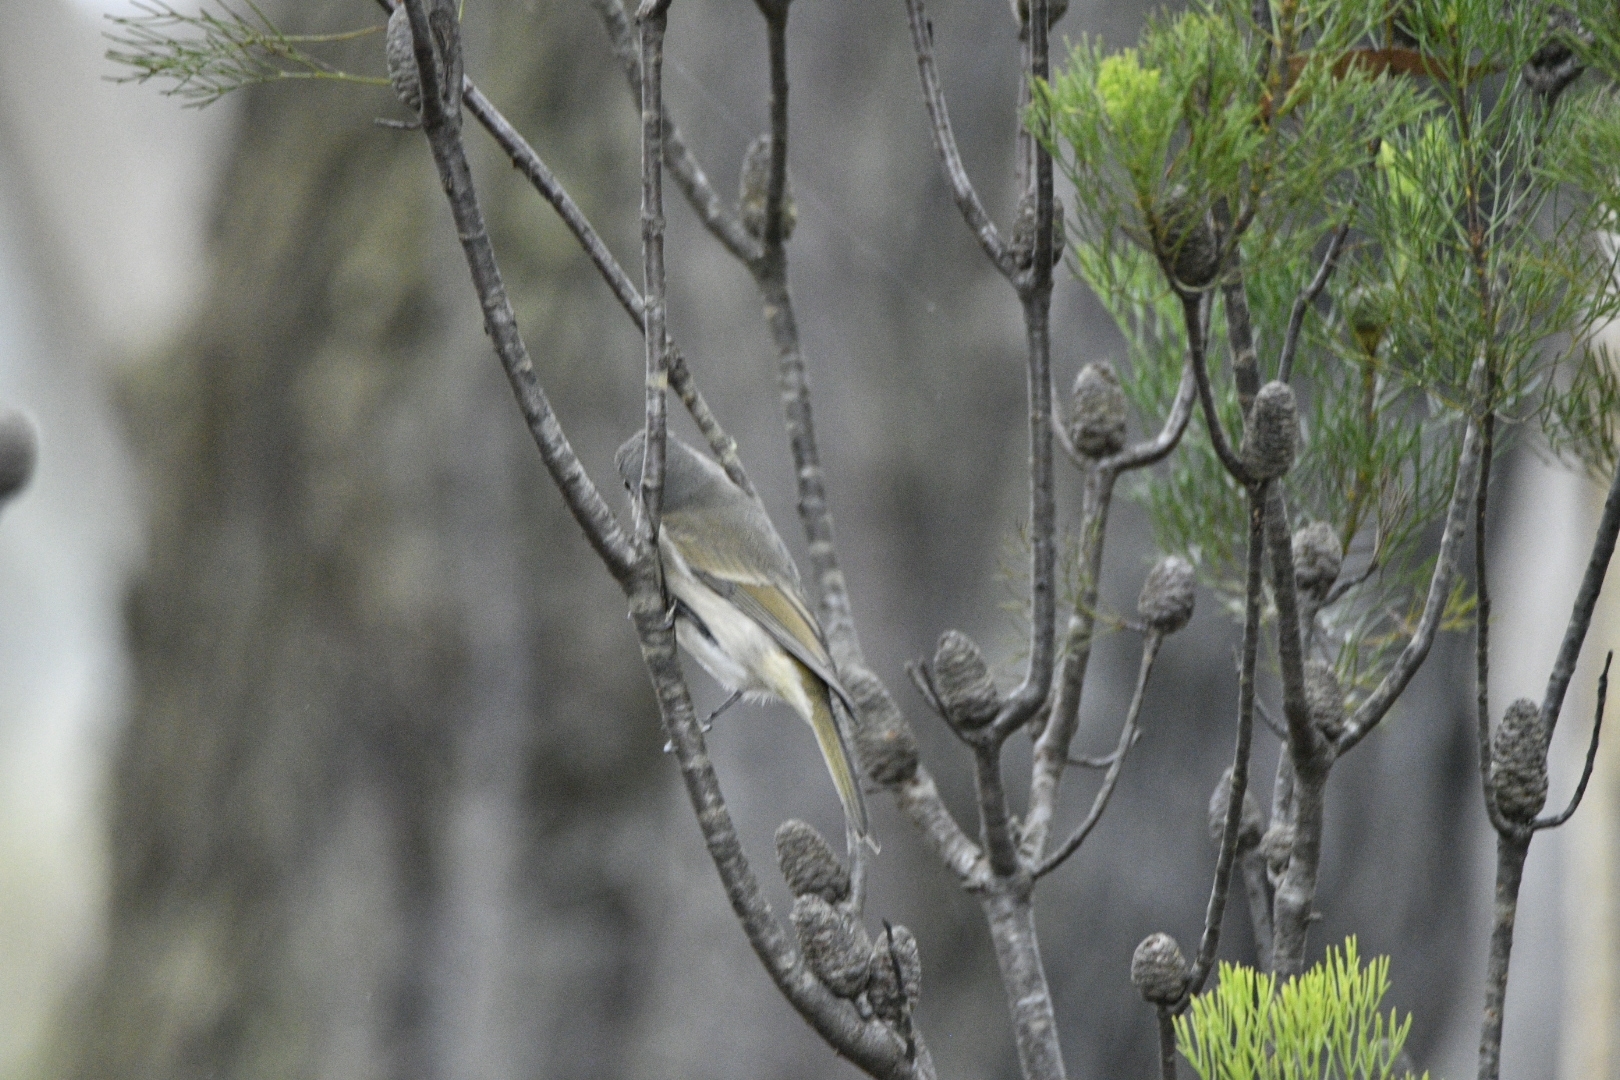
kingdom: Animalia
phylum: Chordata
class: Aves
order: Passeriformes
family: Pachycephalidae
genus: Pachycephala
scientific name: Pachycephala pectoralis
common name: Australian golden whistler
